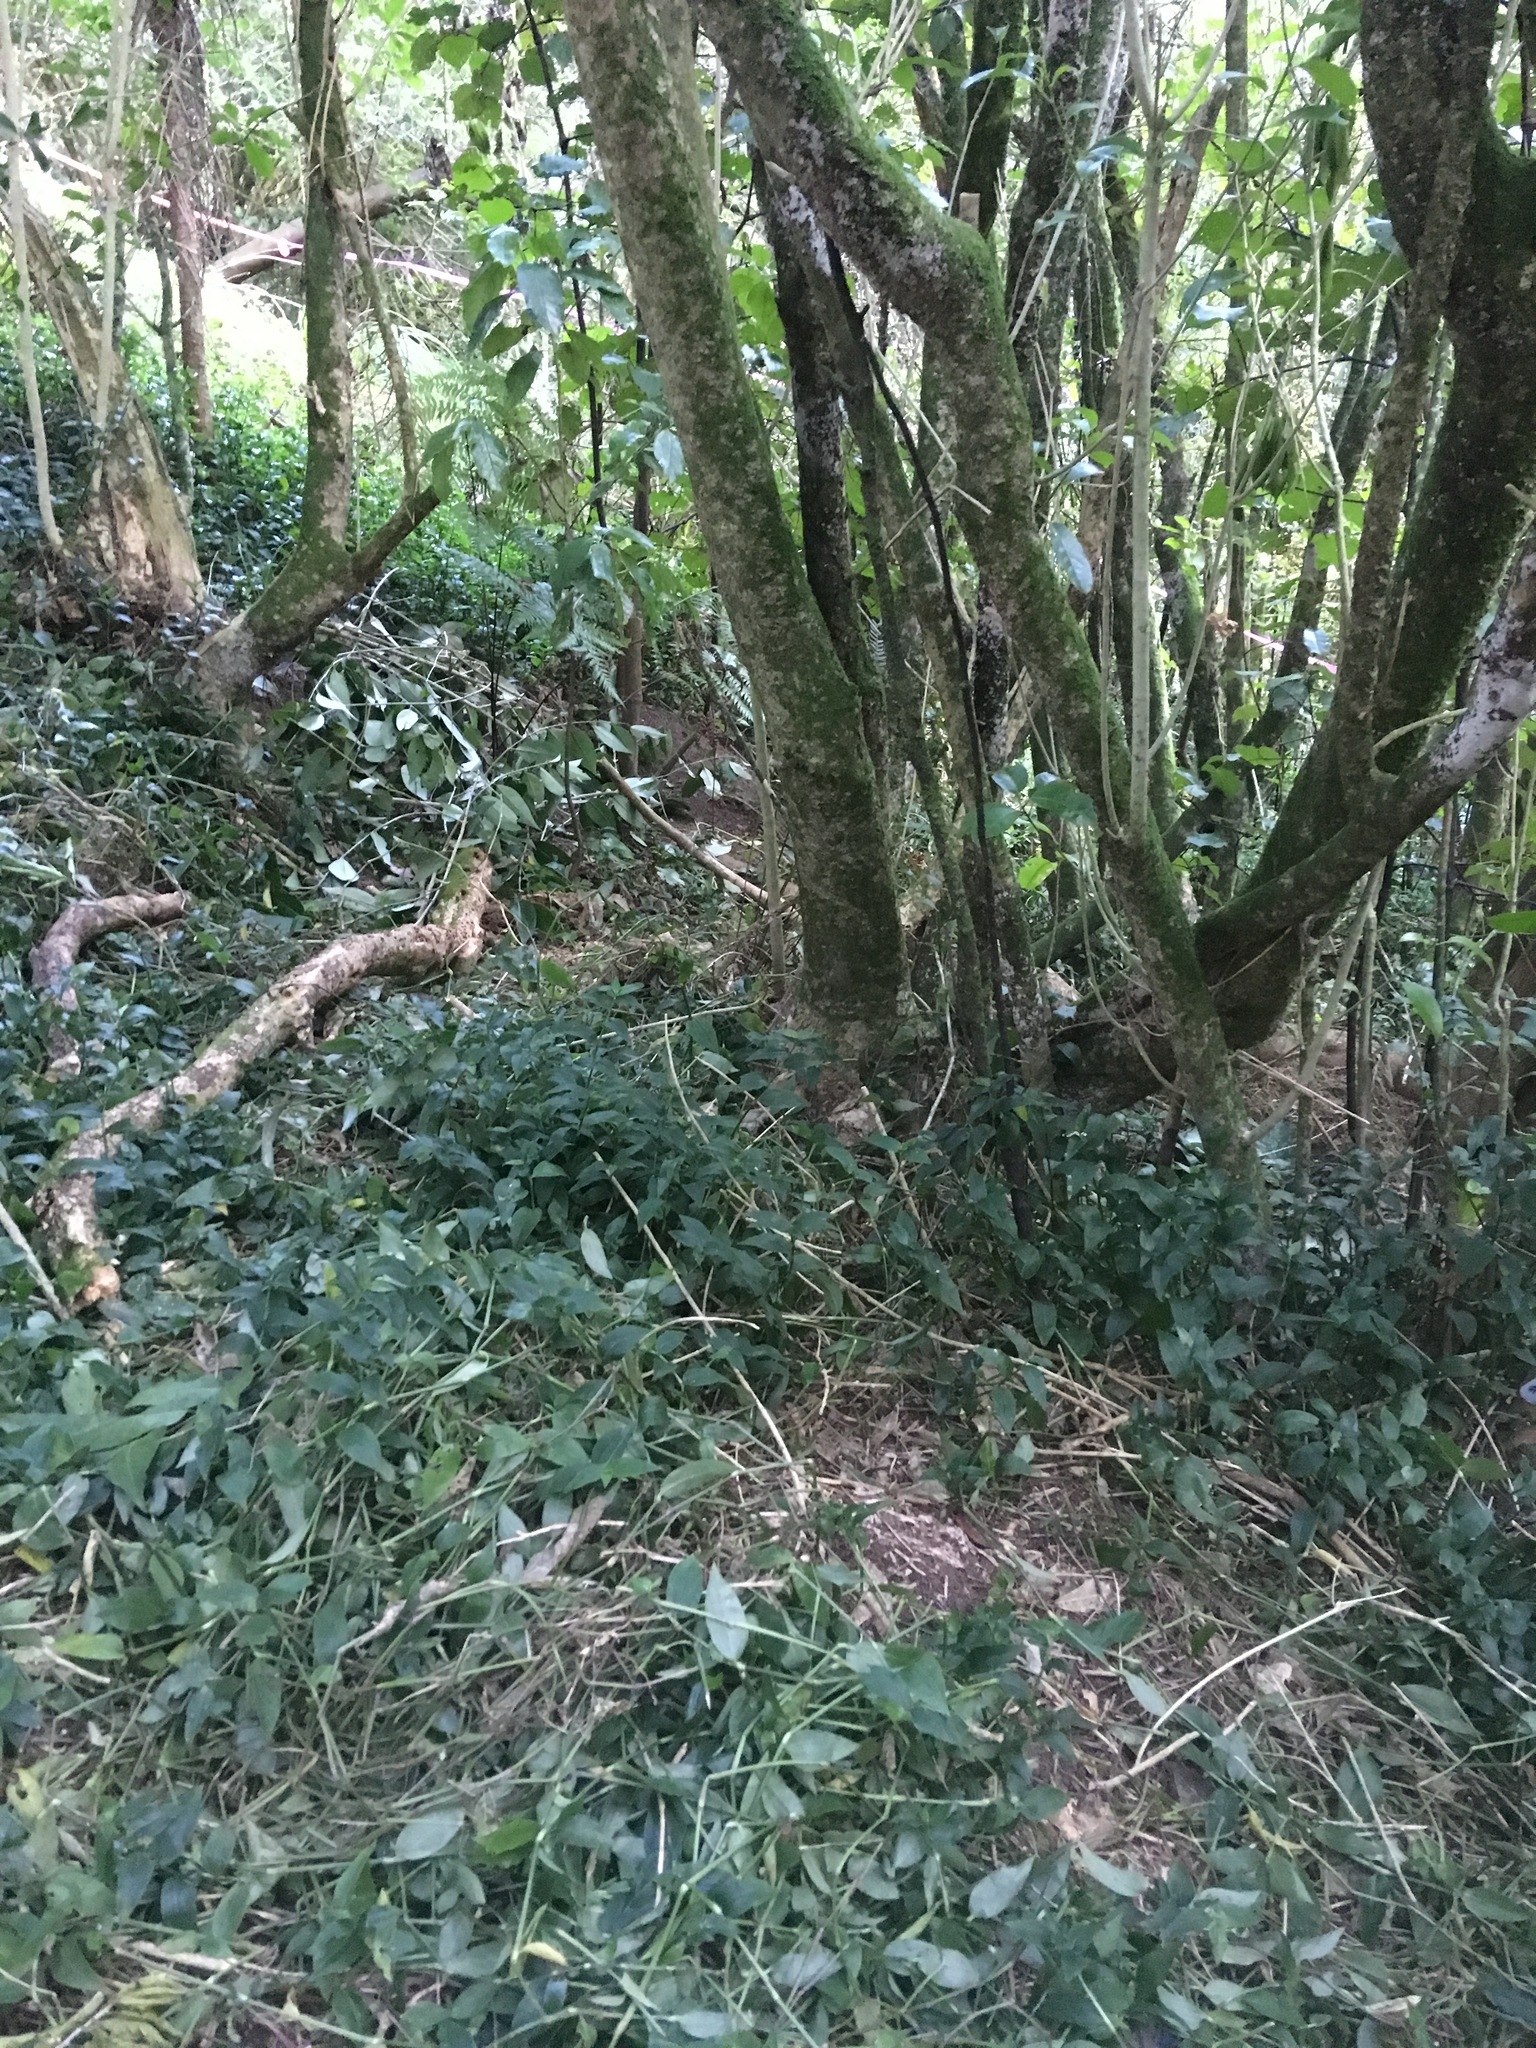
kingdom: Plantae
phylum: Tracheophyta
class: Liliopsida
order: Commelinales
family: Commelinaceae
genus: Tradescantia
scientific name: Tradescantia fluminensis
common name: Wandering-jew
